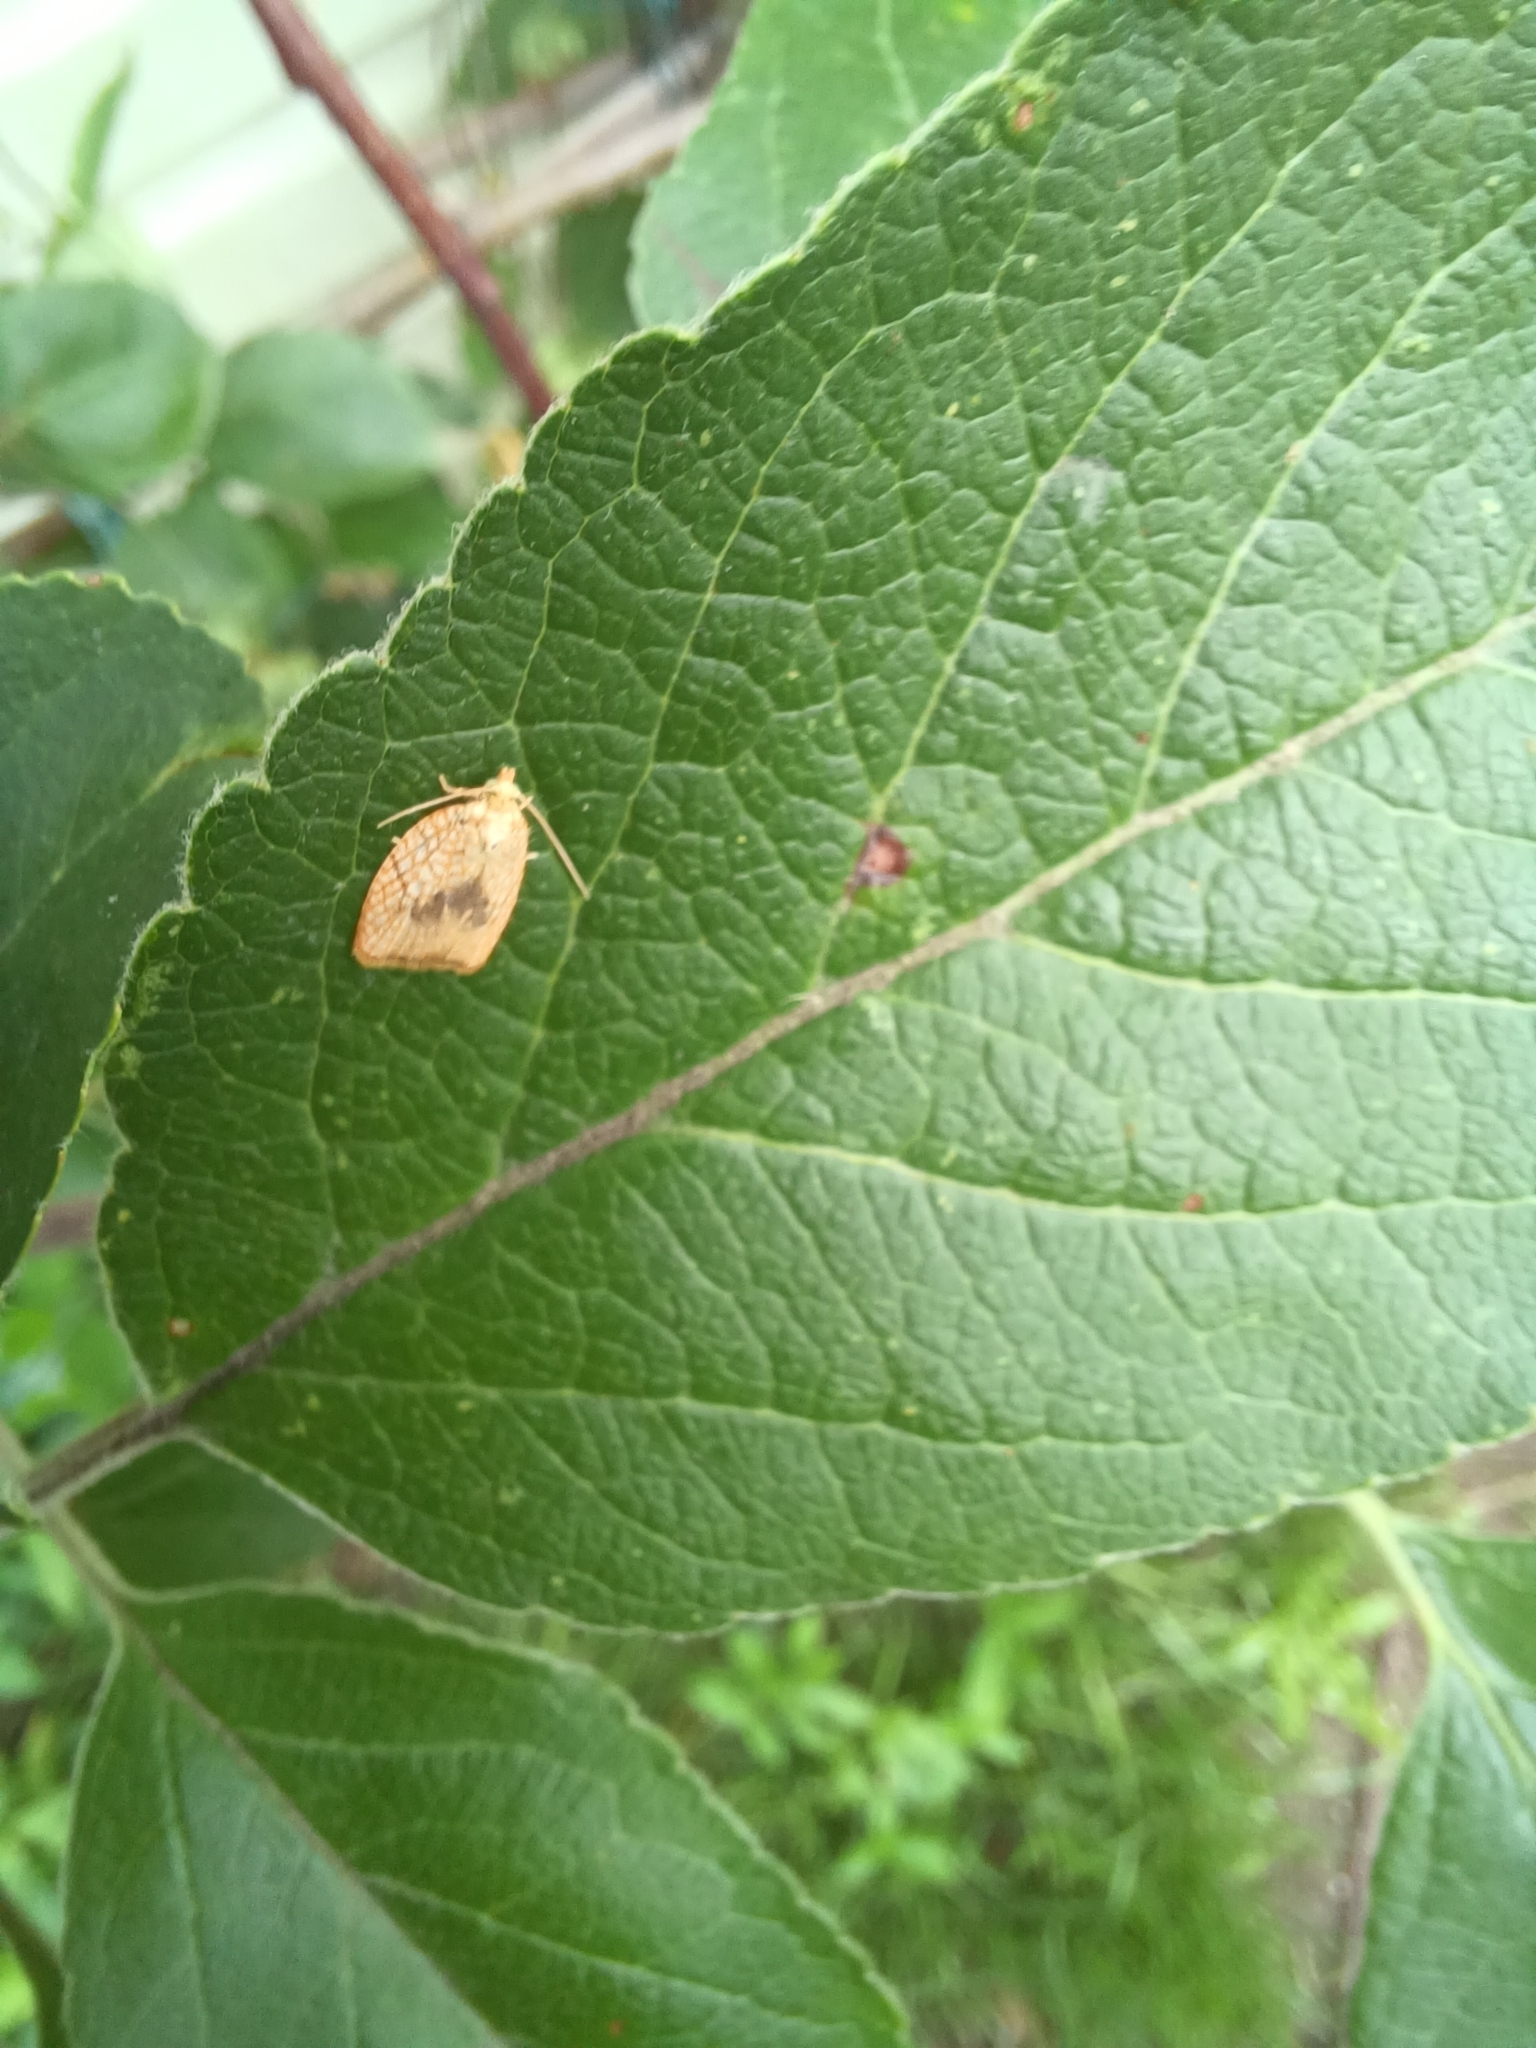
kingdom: Animalia
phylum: Arthropoda
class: Insecta
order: Lepidoptera
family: Tortricidae
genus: Acleris
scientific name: Acleris forsskaleana
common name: Maple button
